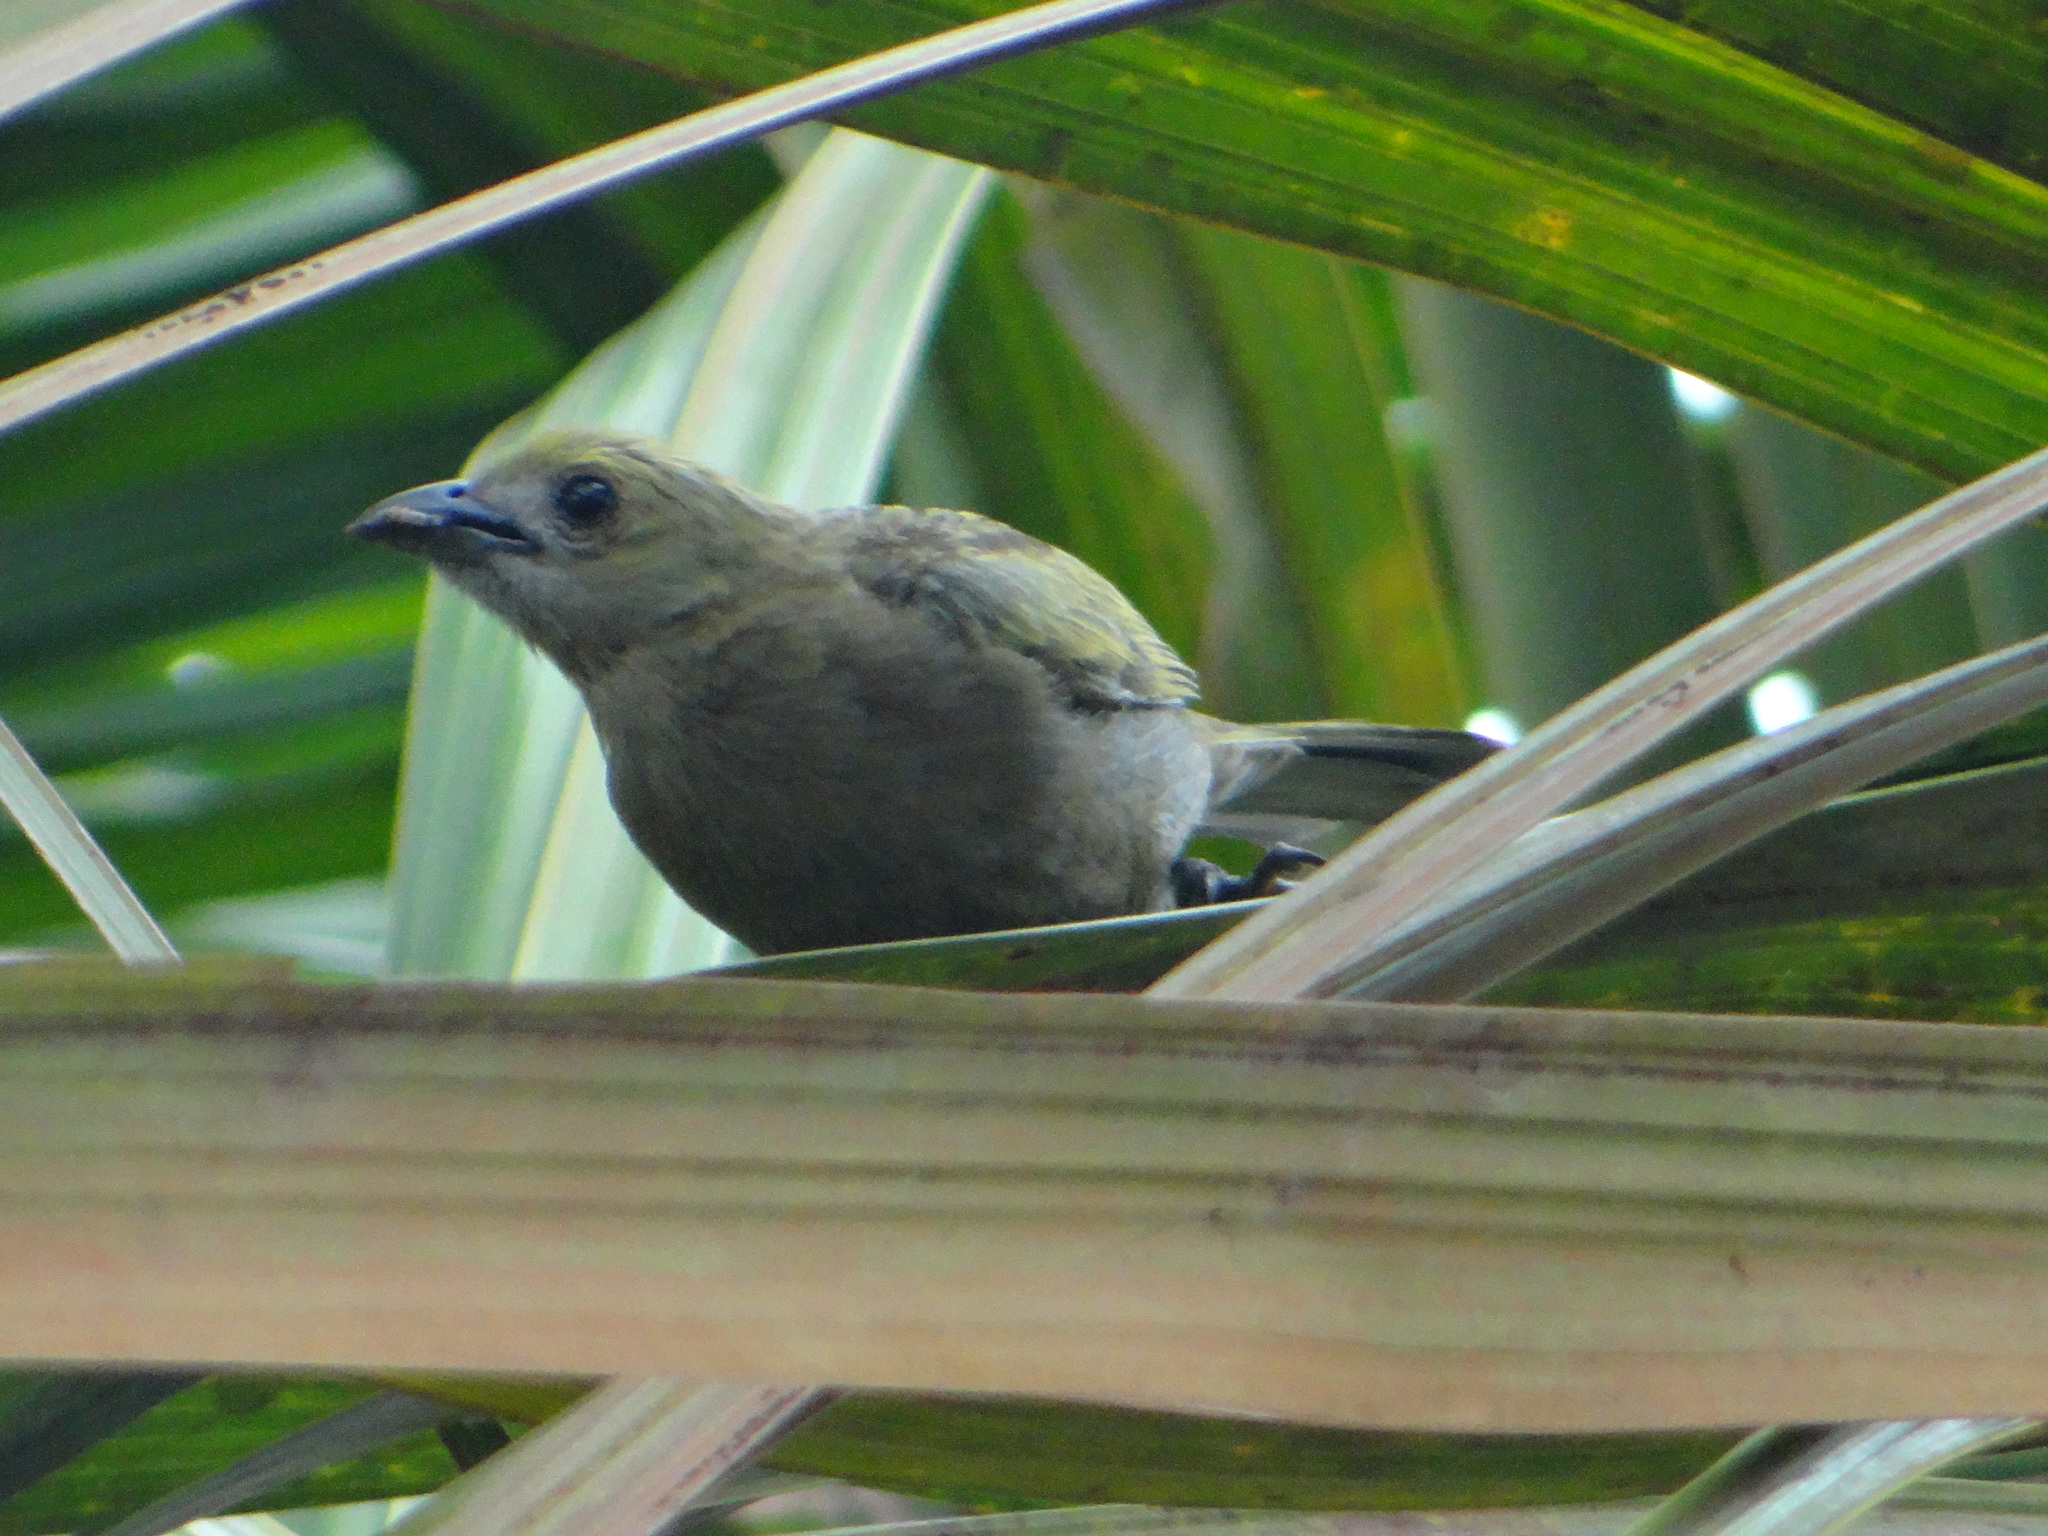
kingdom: Animalia
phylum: Chordata
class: Aves
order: Passeriformes
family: Thraupidae
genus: Thraupis
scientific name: Thraupis palmarum
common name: Palm tanager
